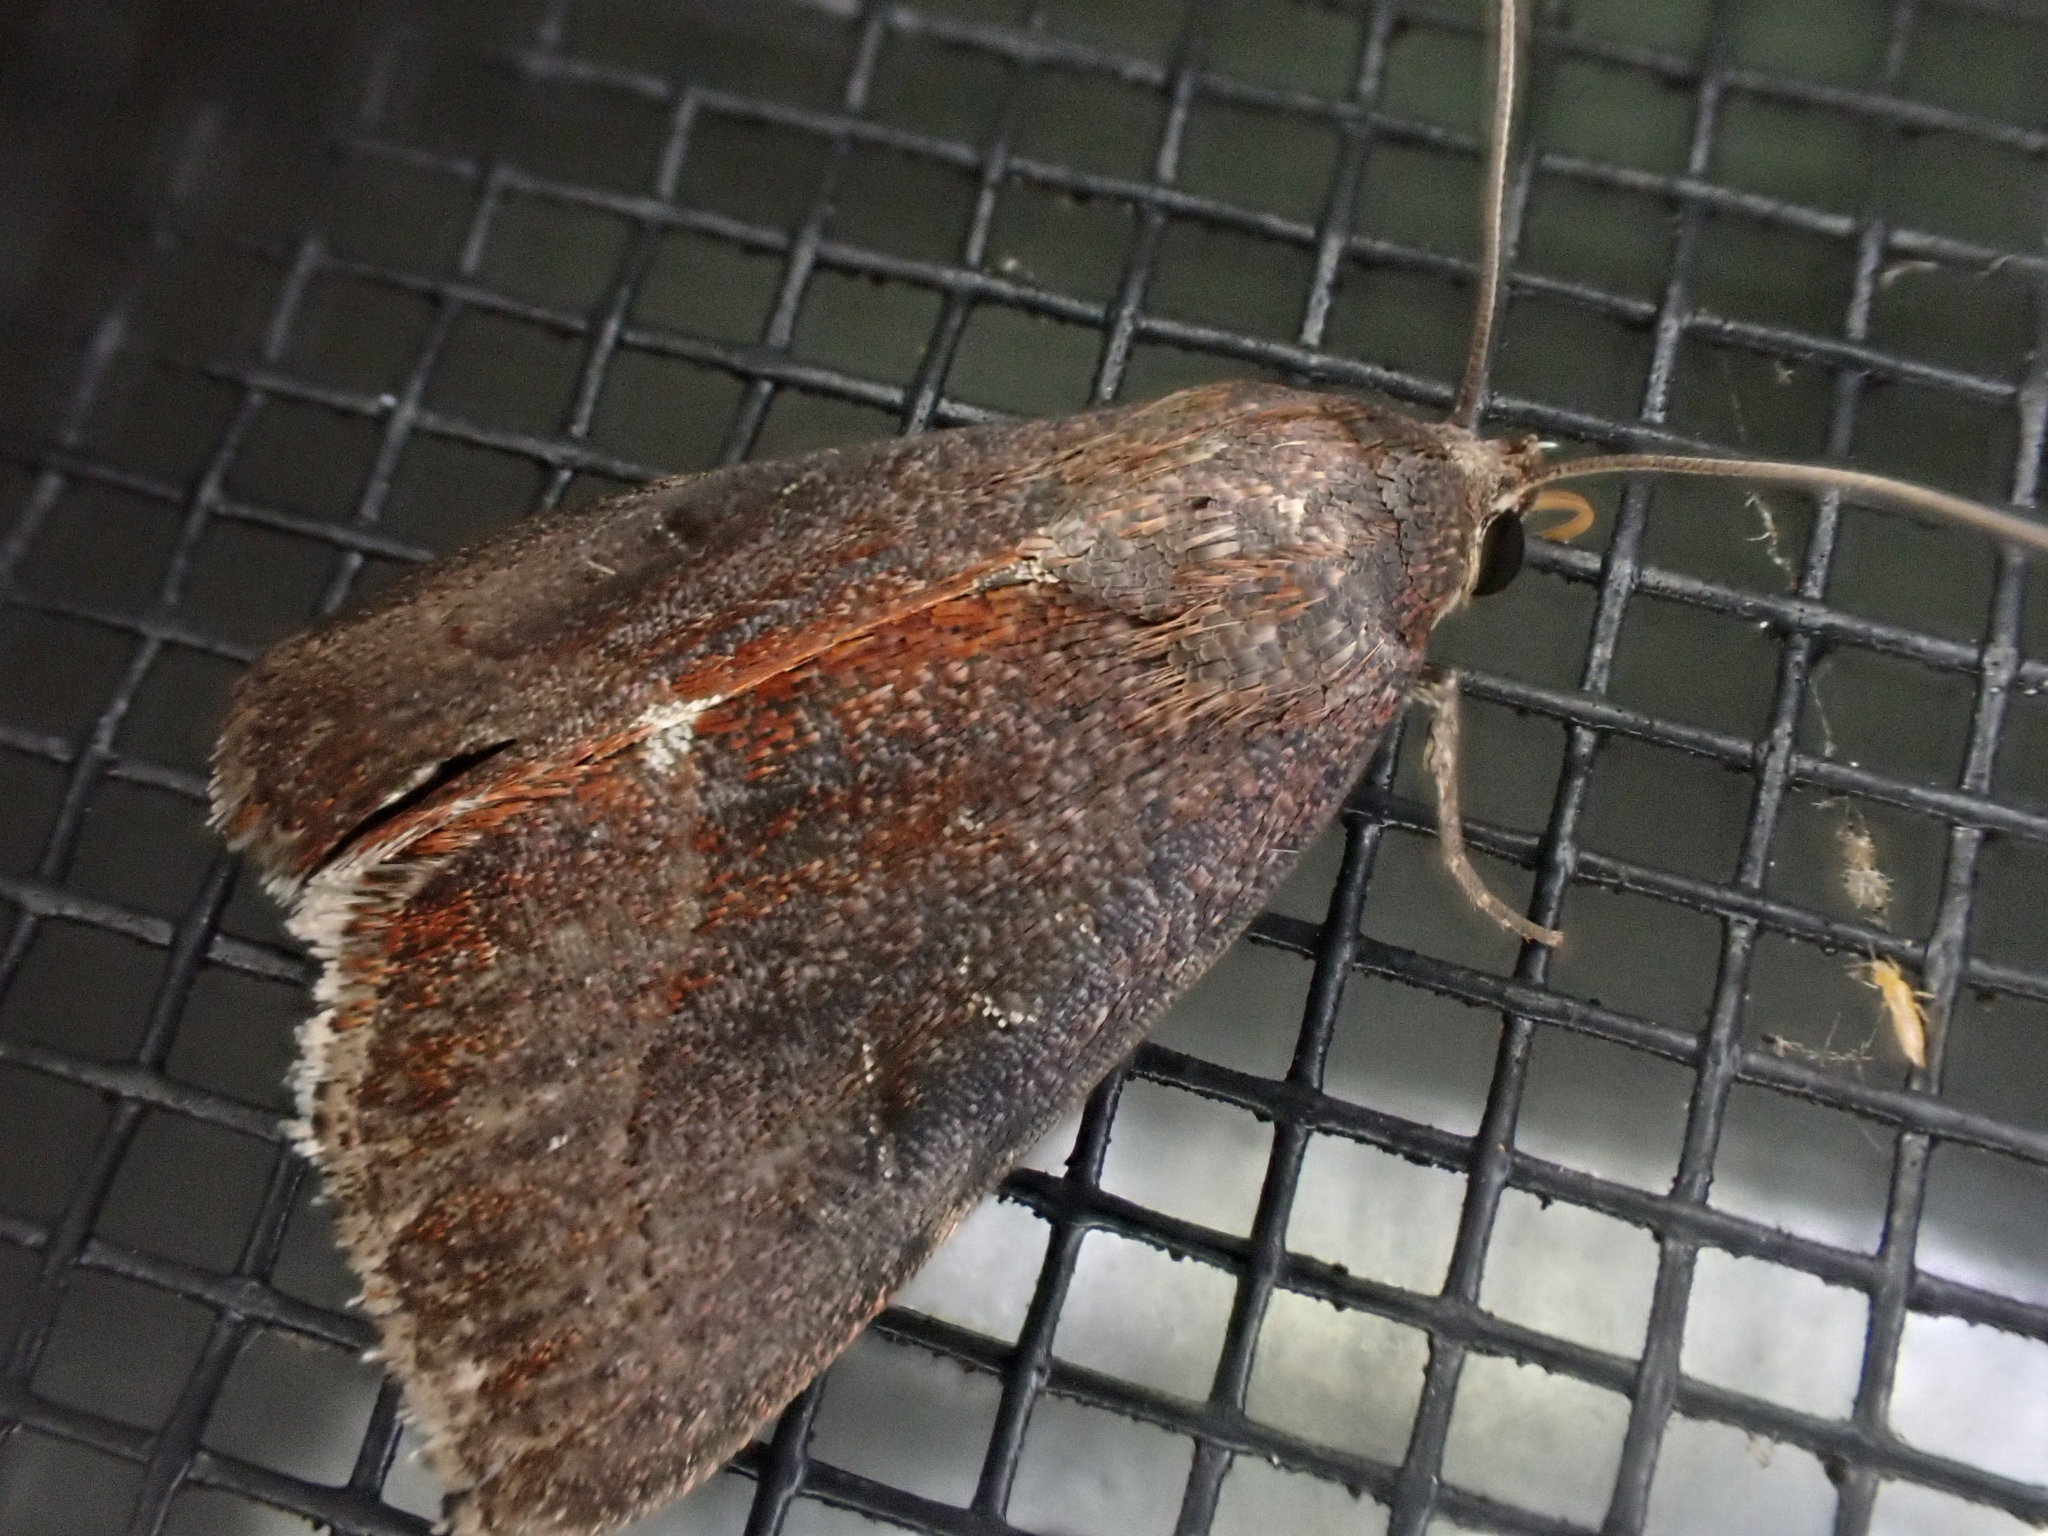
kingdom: Animalia
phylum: Arthropoda
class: Insecta
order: Lepidoptera
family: Noctuidae
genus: Galgula
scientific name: Galgula partita
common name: Wedgeling
